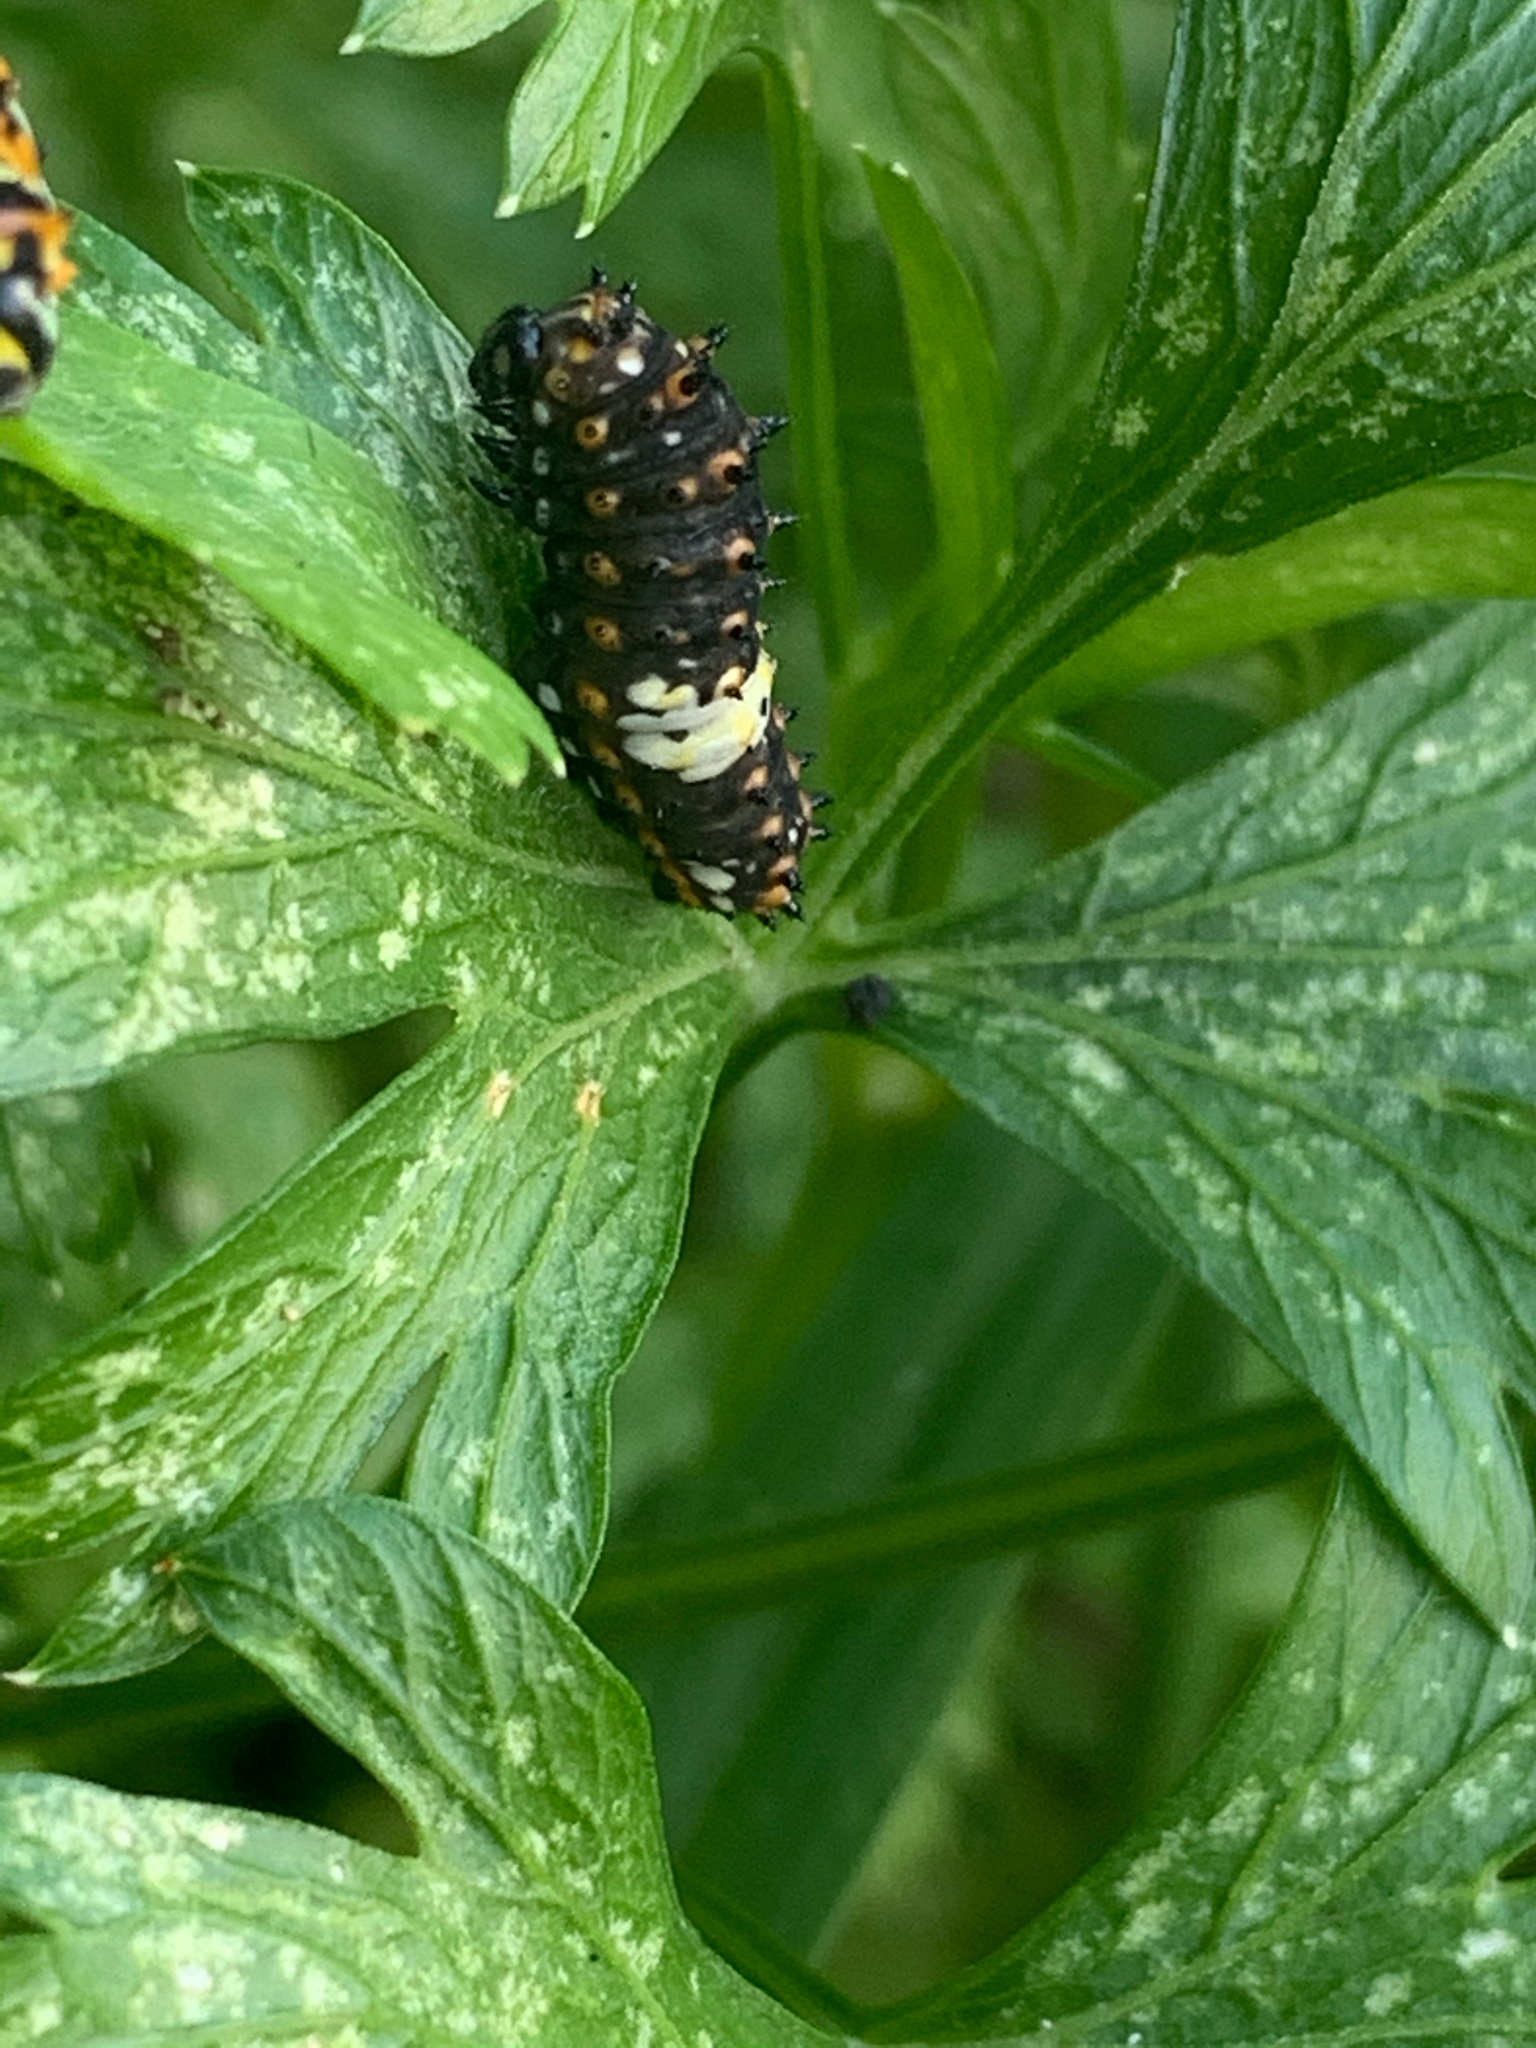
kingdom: Animalia
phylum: Arthropoda
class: Insecta
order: Lepidoptera
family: Papilionidae
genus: Papilio
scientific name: Papilio polyxenes
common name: Black swallowtail
